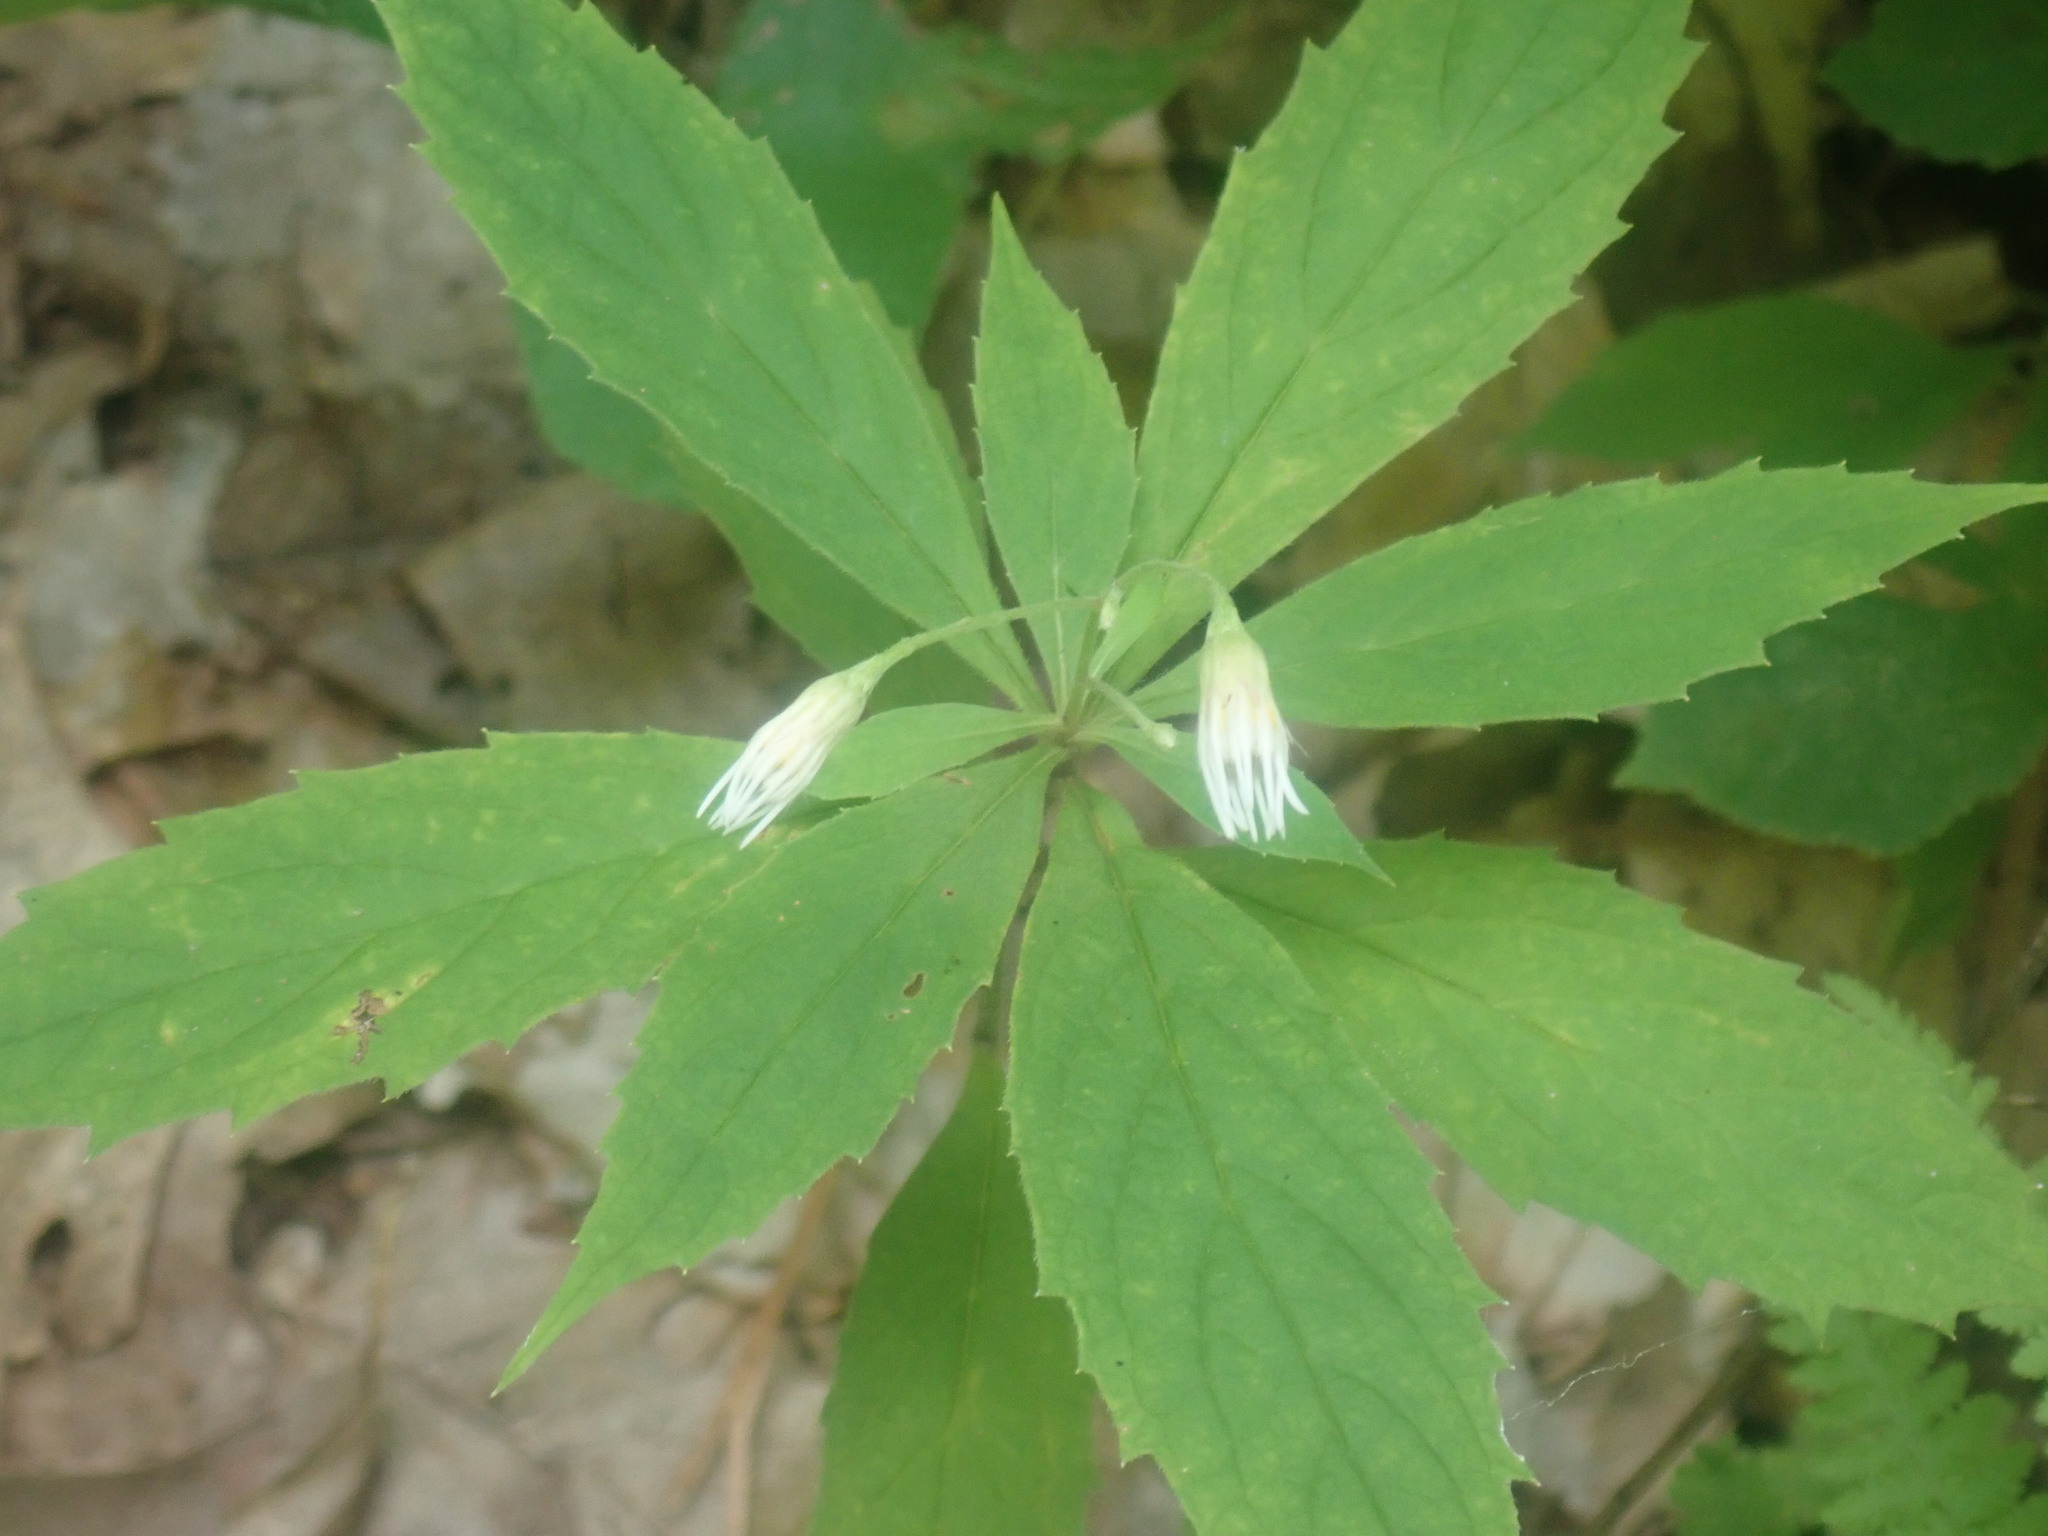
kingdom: Plantae
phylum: Tracheophyta
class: Magnoliopsida
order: Asterales
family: Asteraceae
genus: Oclemena
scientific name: Oclemena acuminata
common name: Mountain aster
